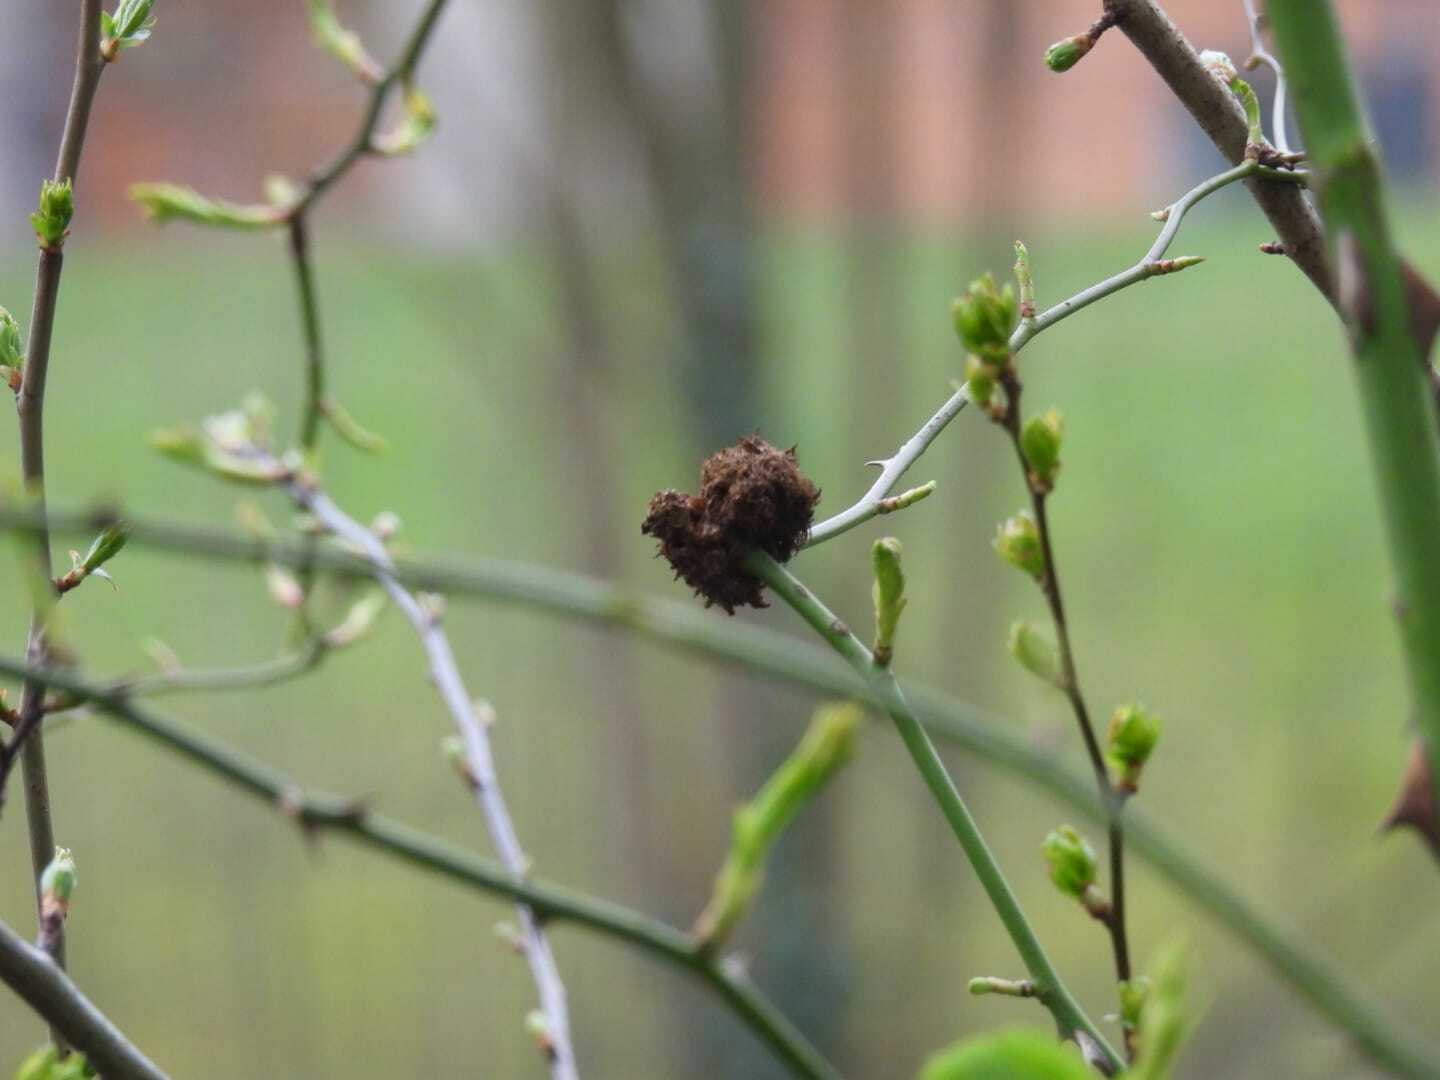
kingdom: Animalia
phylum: Arthropoda
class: Insecta
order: Hymenoptera
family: Cynipidae
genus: Diplolepis
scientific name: Diplolepis rosae
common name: Bedeguar gall
